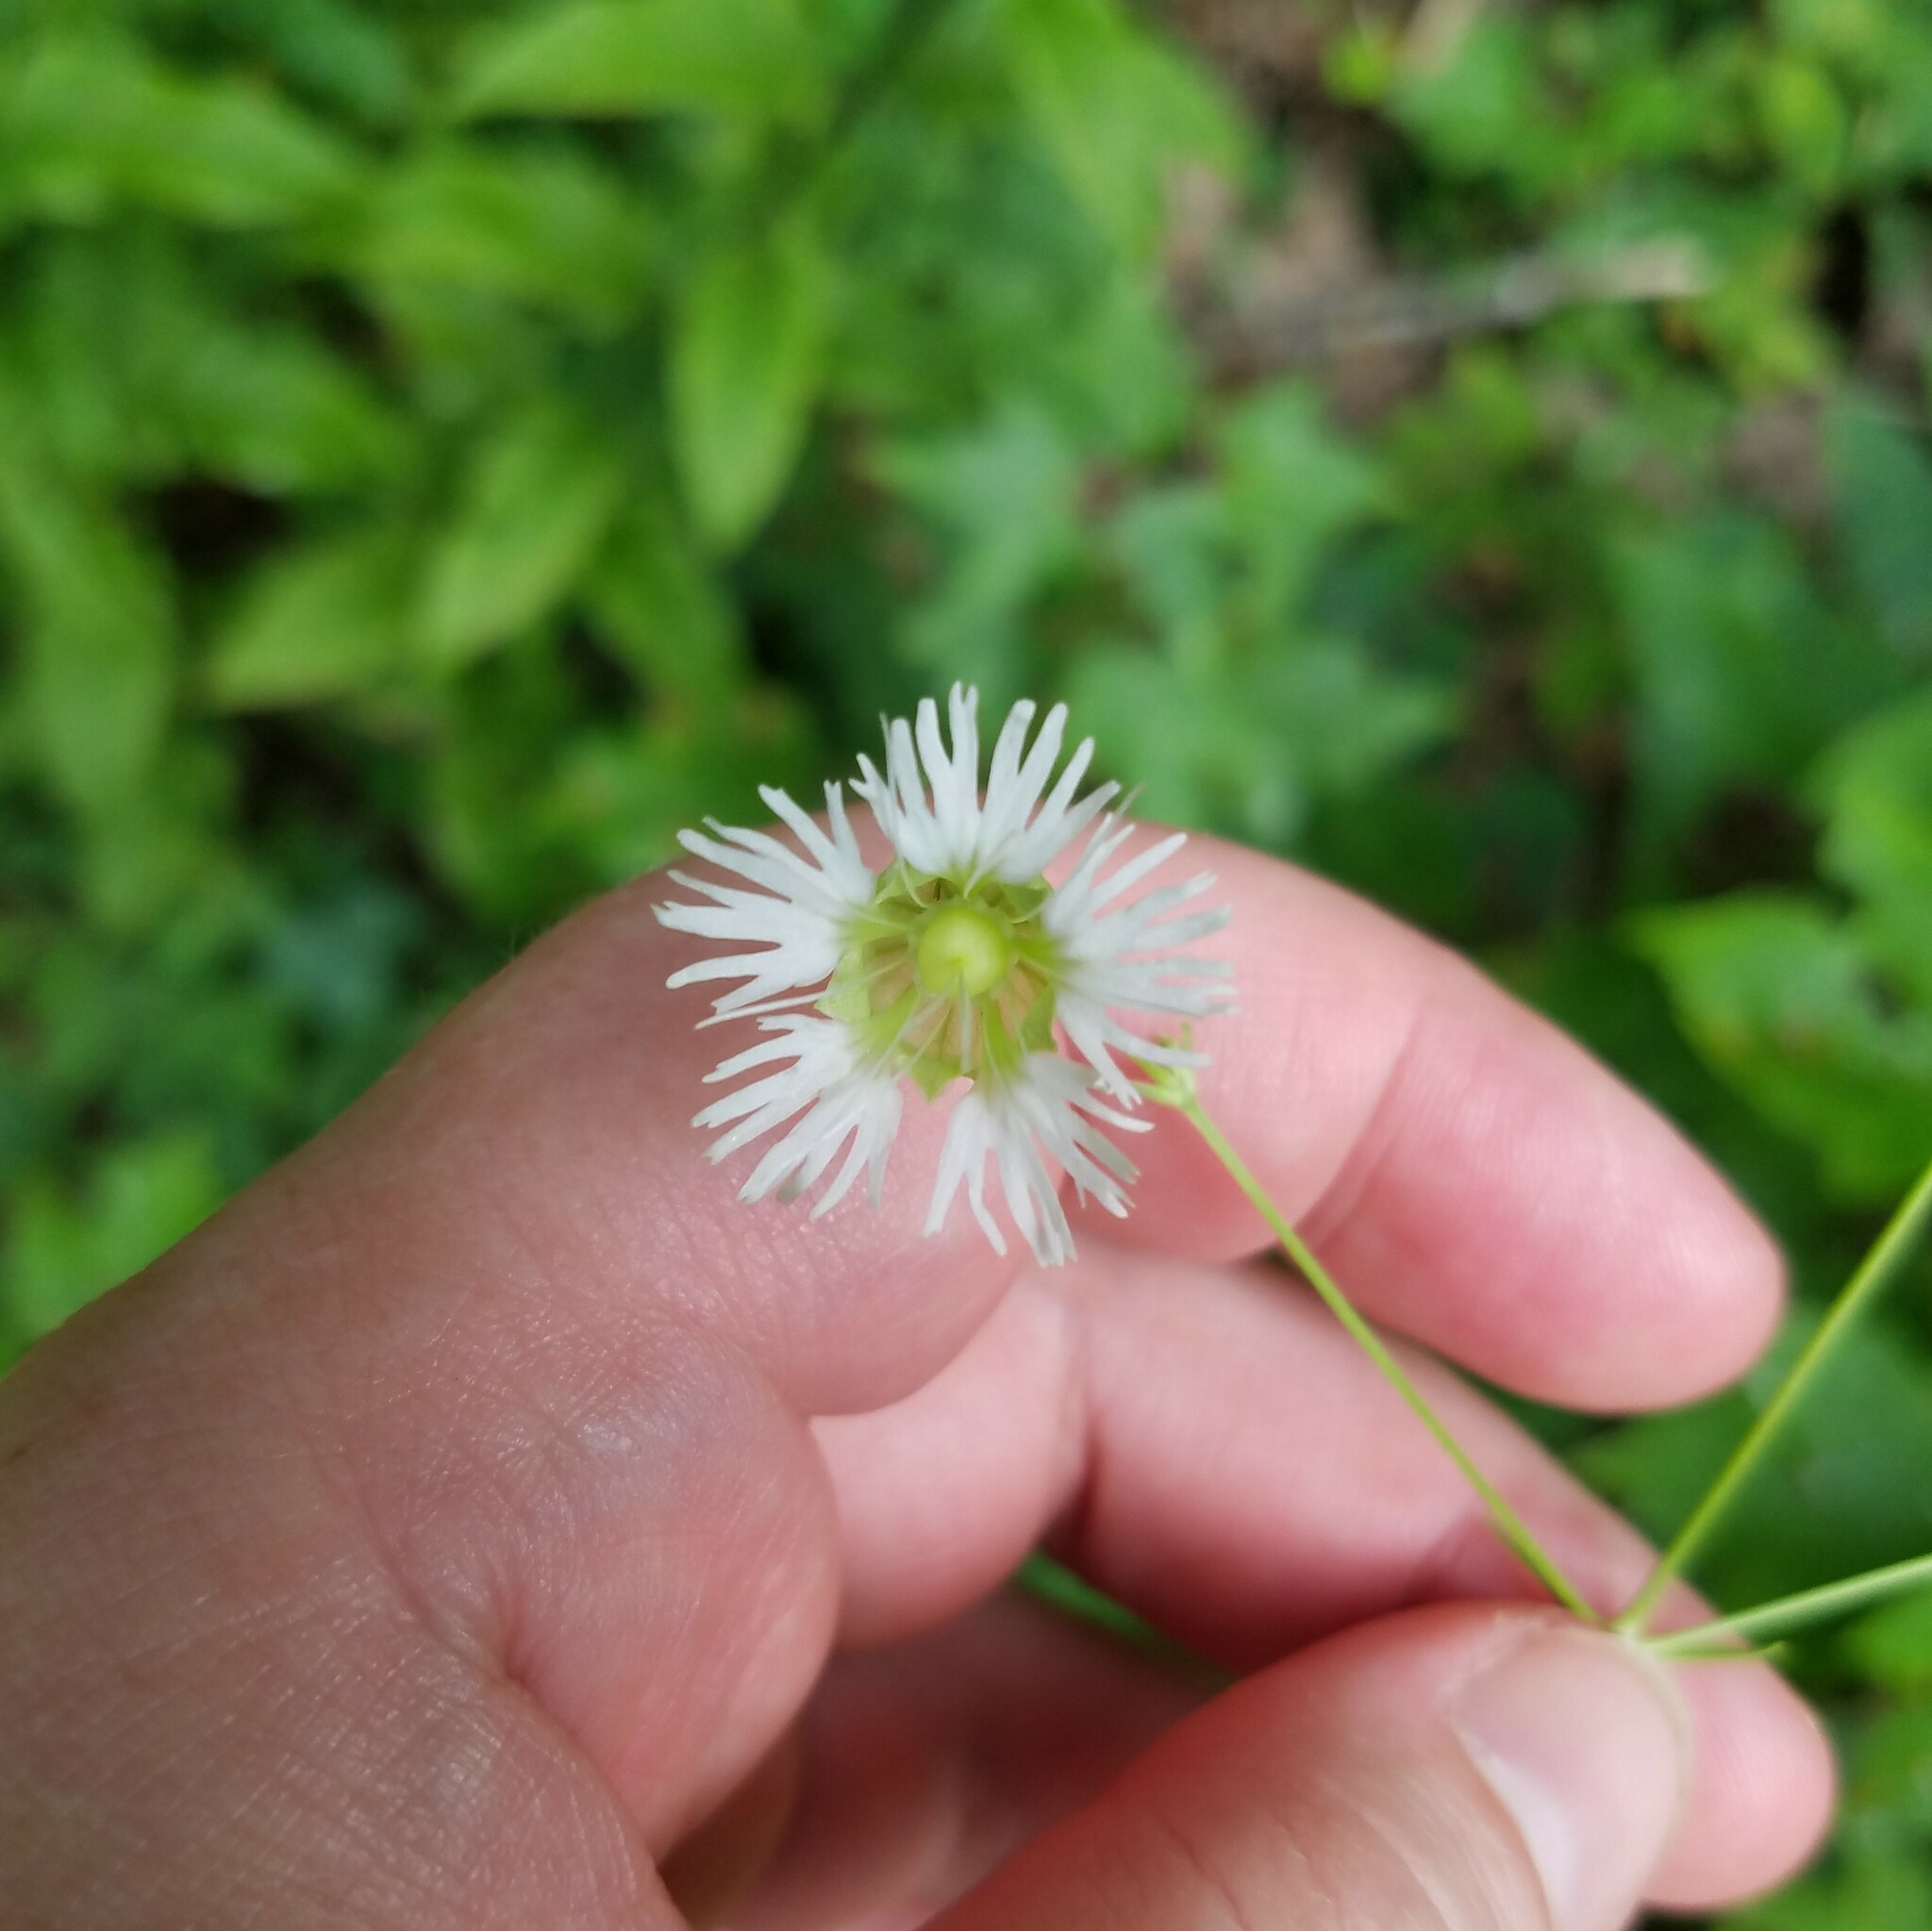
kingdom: Plantae
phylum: Tracheophyta
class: Magnoliopsida
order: Caryophyllales
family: Caryophyllaceae
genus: Silene
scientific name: Silene stellata
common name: Starry campion
